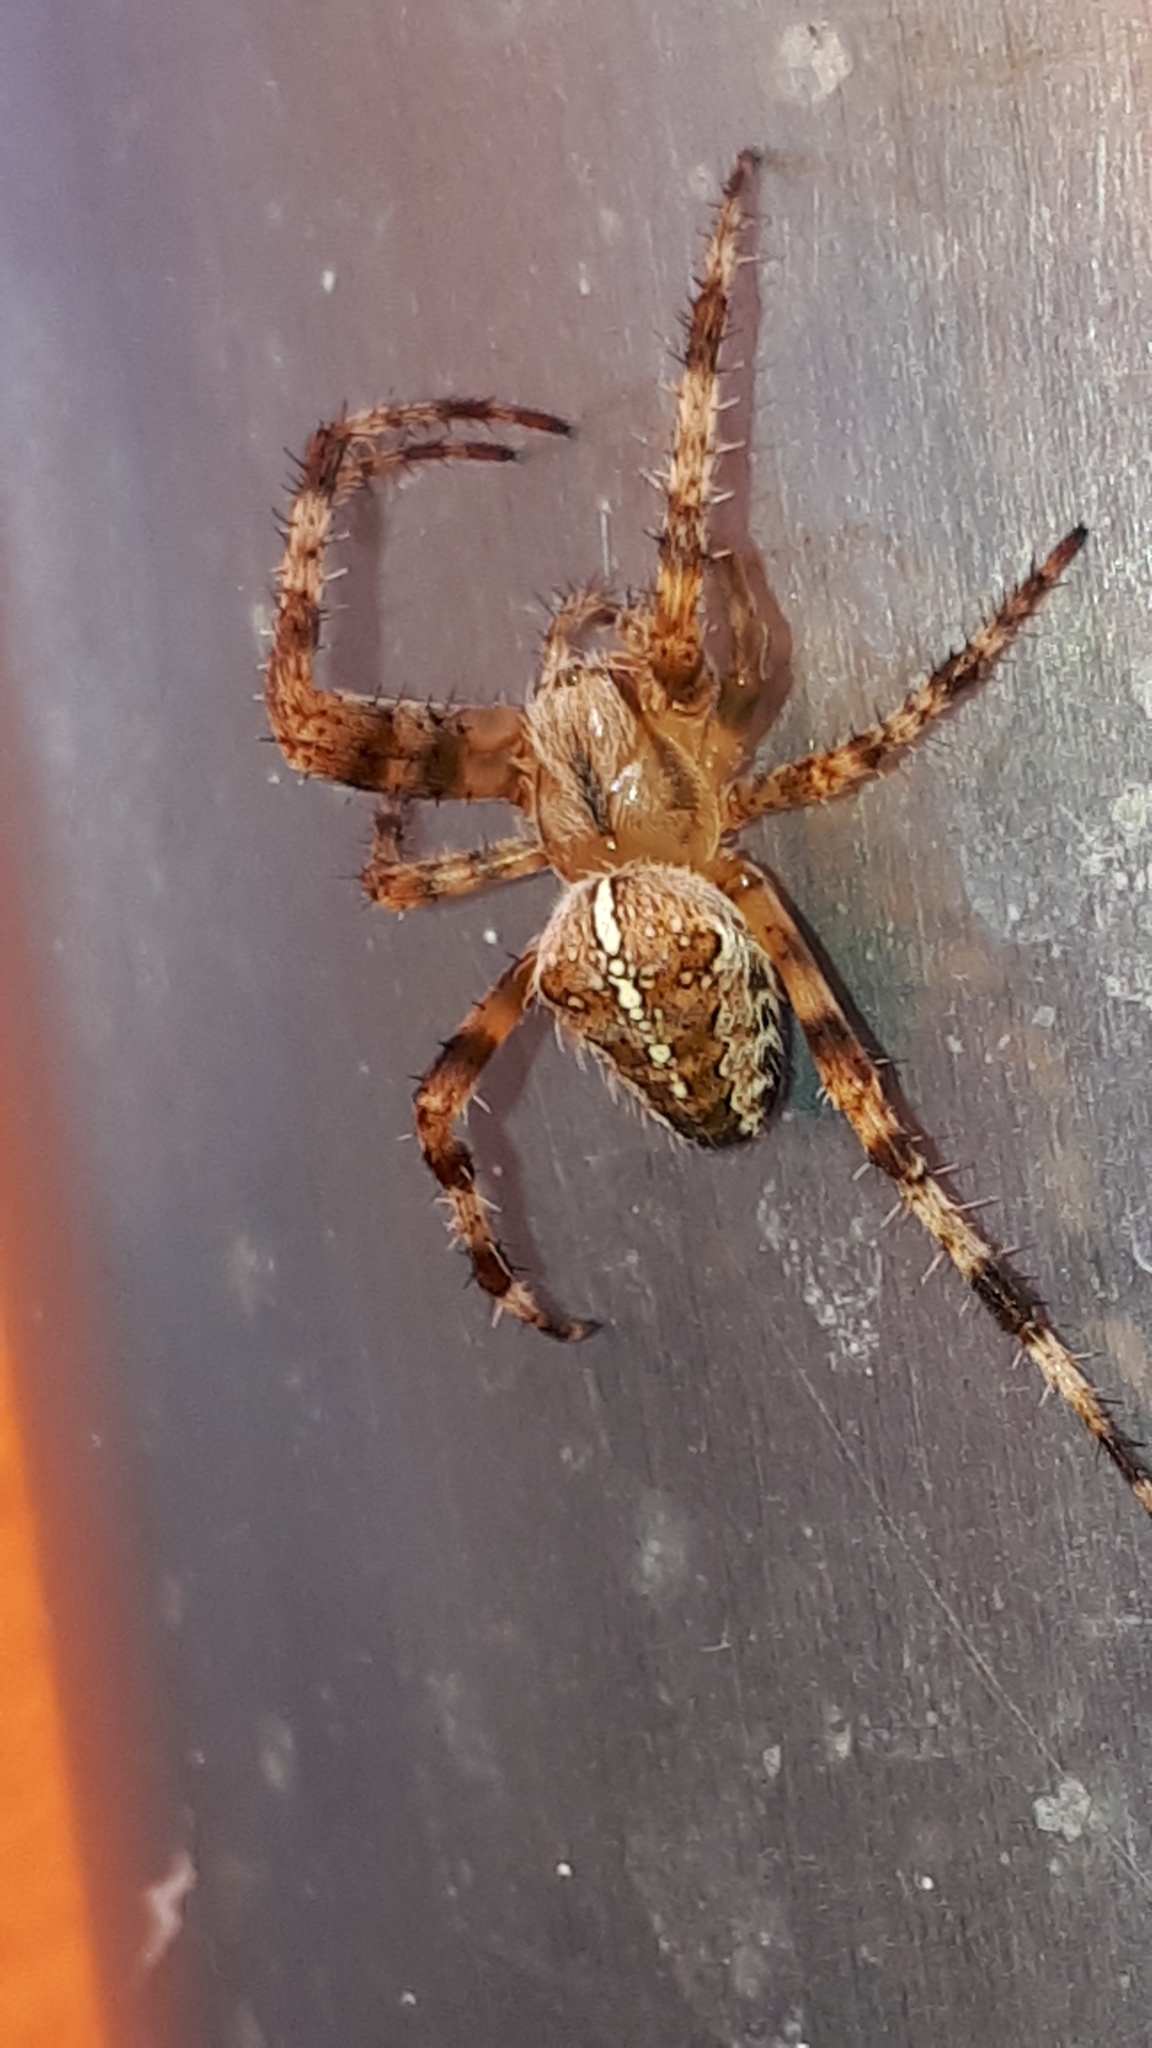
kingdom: Animalia
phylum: Arthropoda
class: Arachnida
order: Araneae
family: Araneidae
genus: Araneus
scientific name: Araneus diadematus
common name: Cross orbweaver
